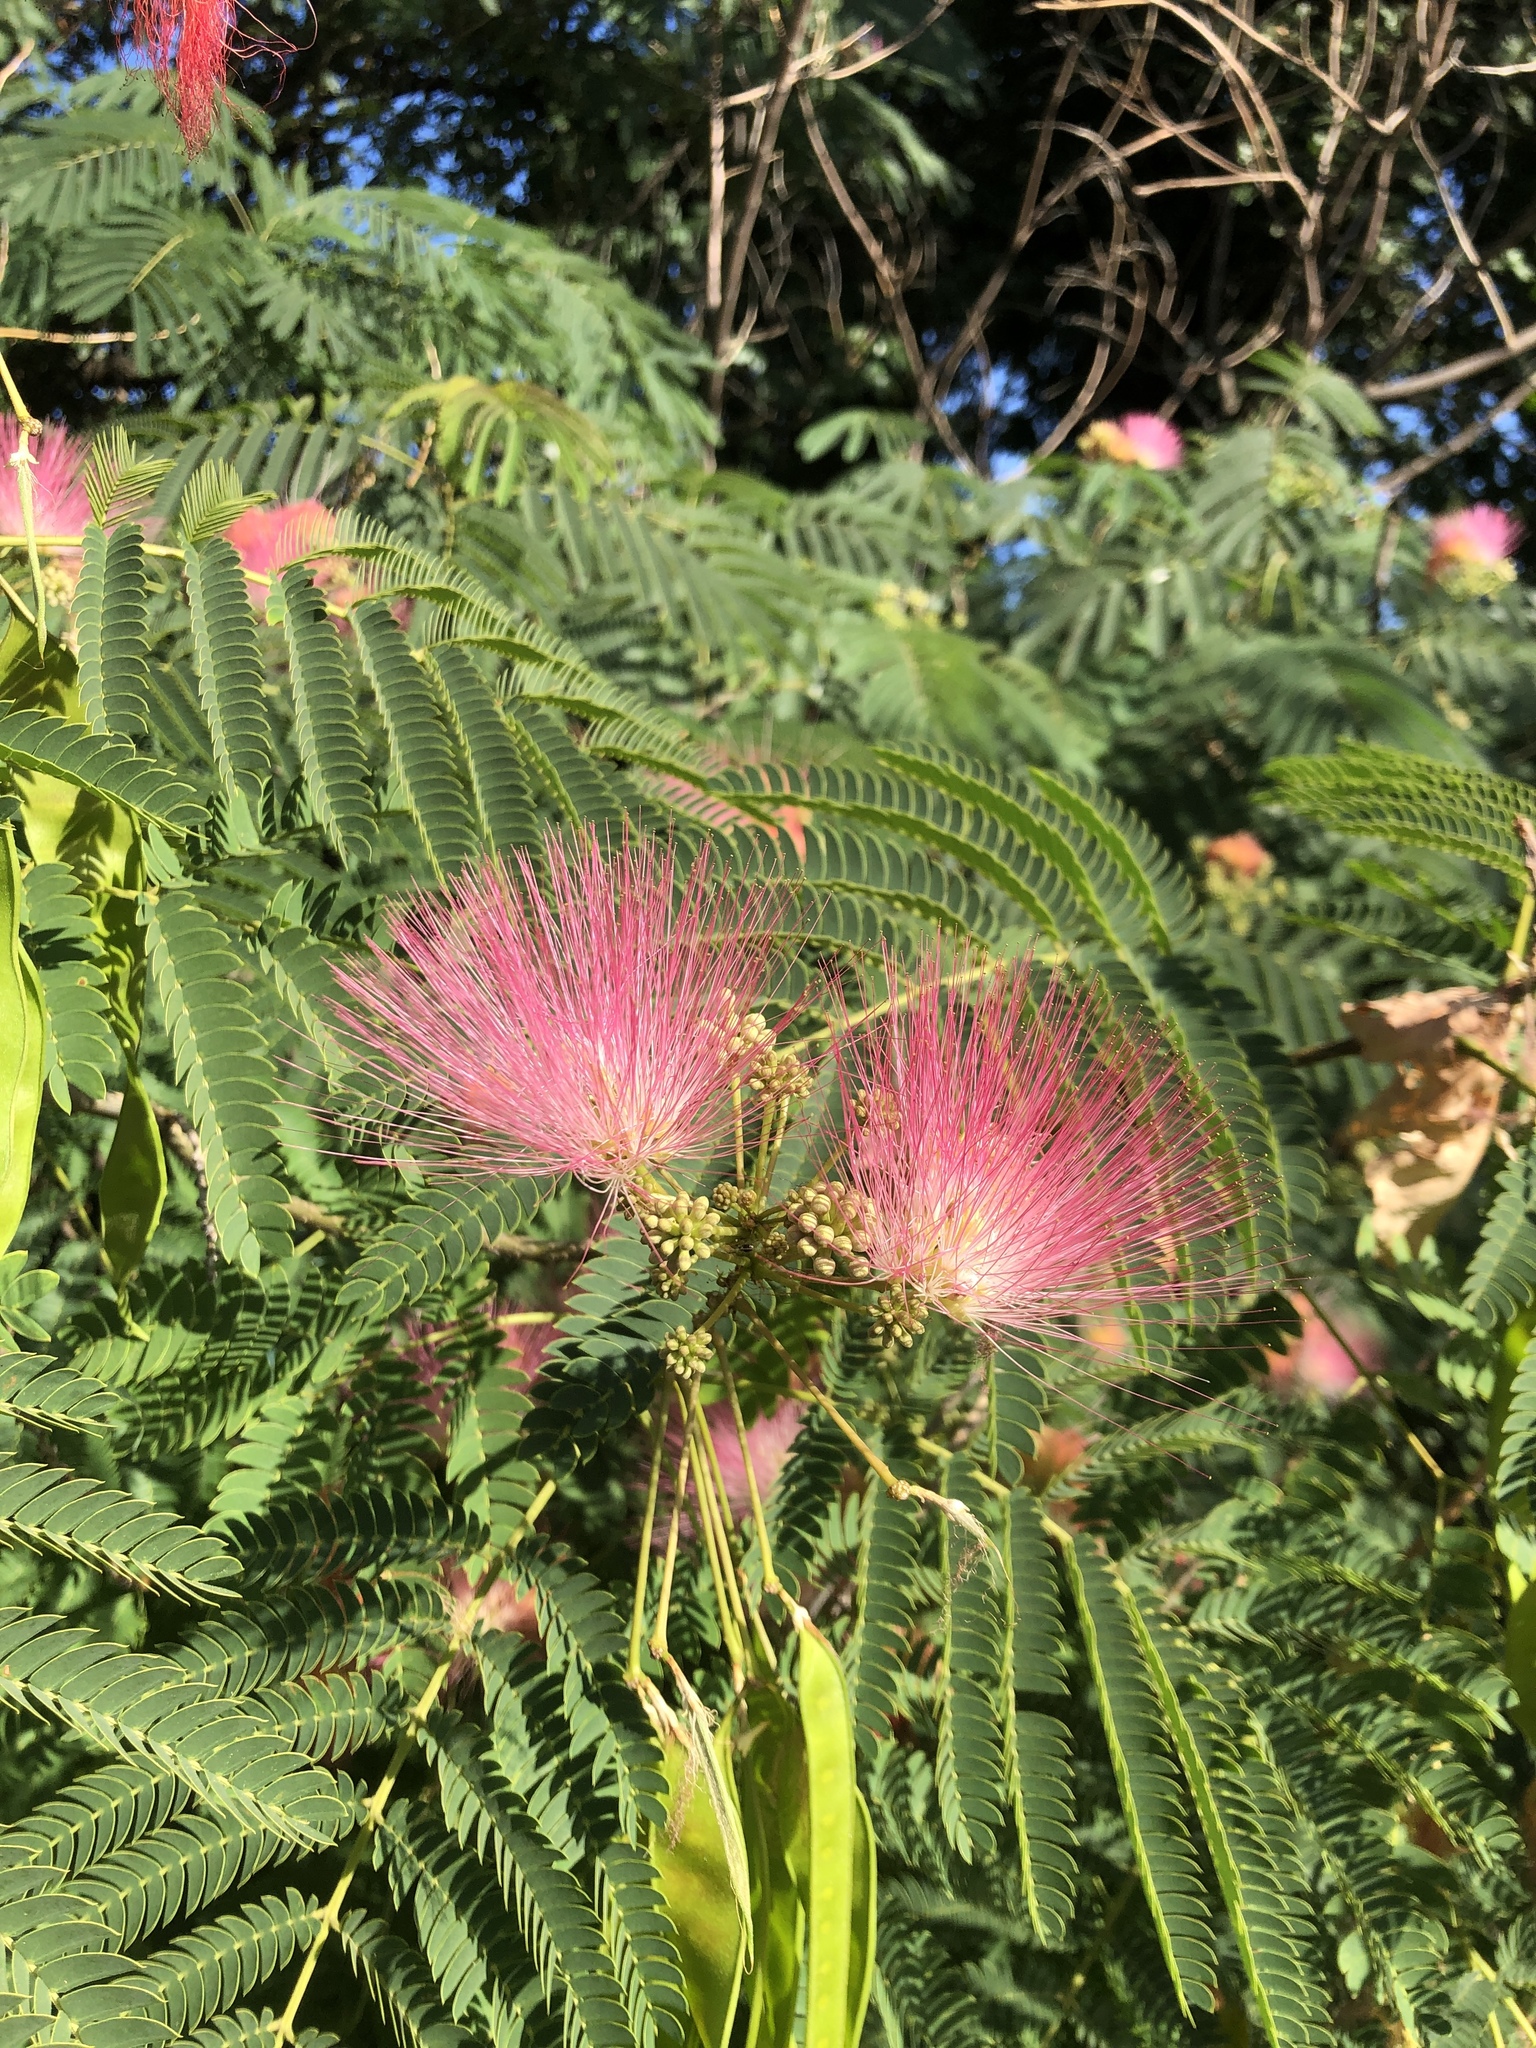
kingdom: Plantae
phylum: Tracheophyta
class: Magnoliopsida
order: Fabales
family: Fabaceae
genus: Albizia
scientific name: Albizia julibrissin
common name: Silktree
